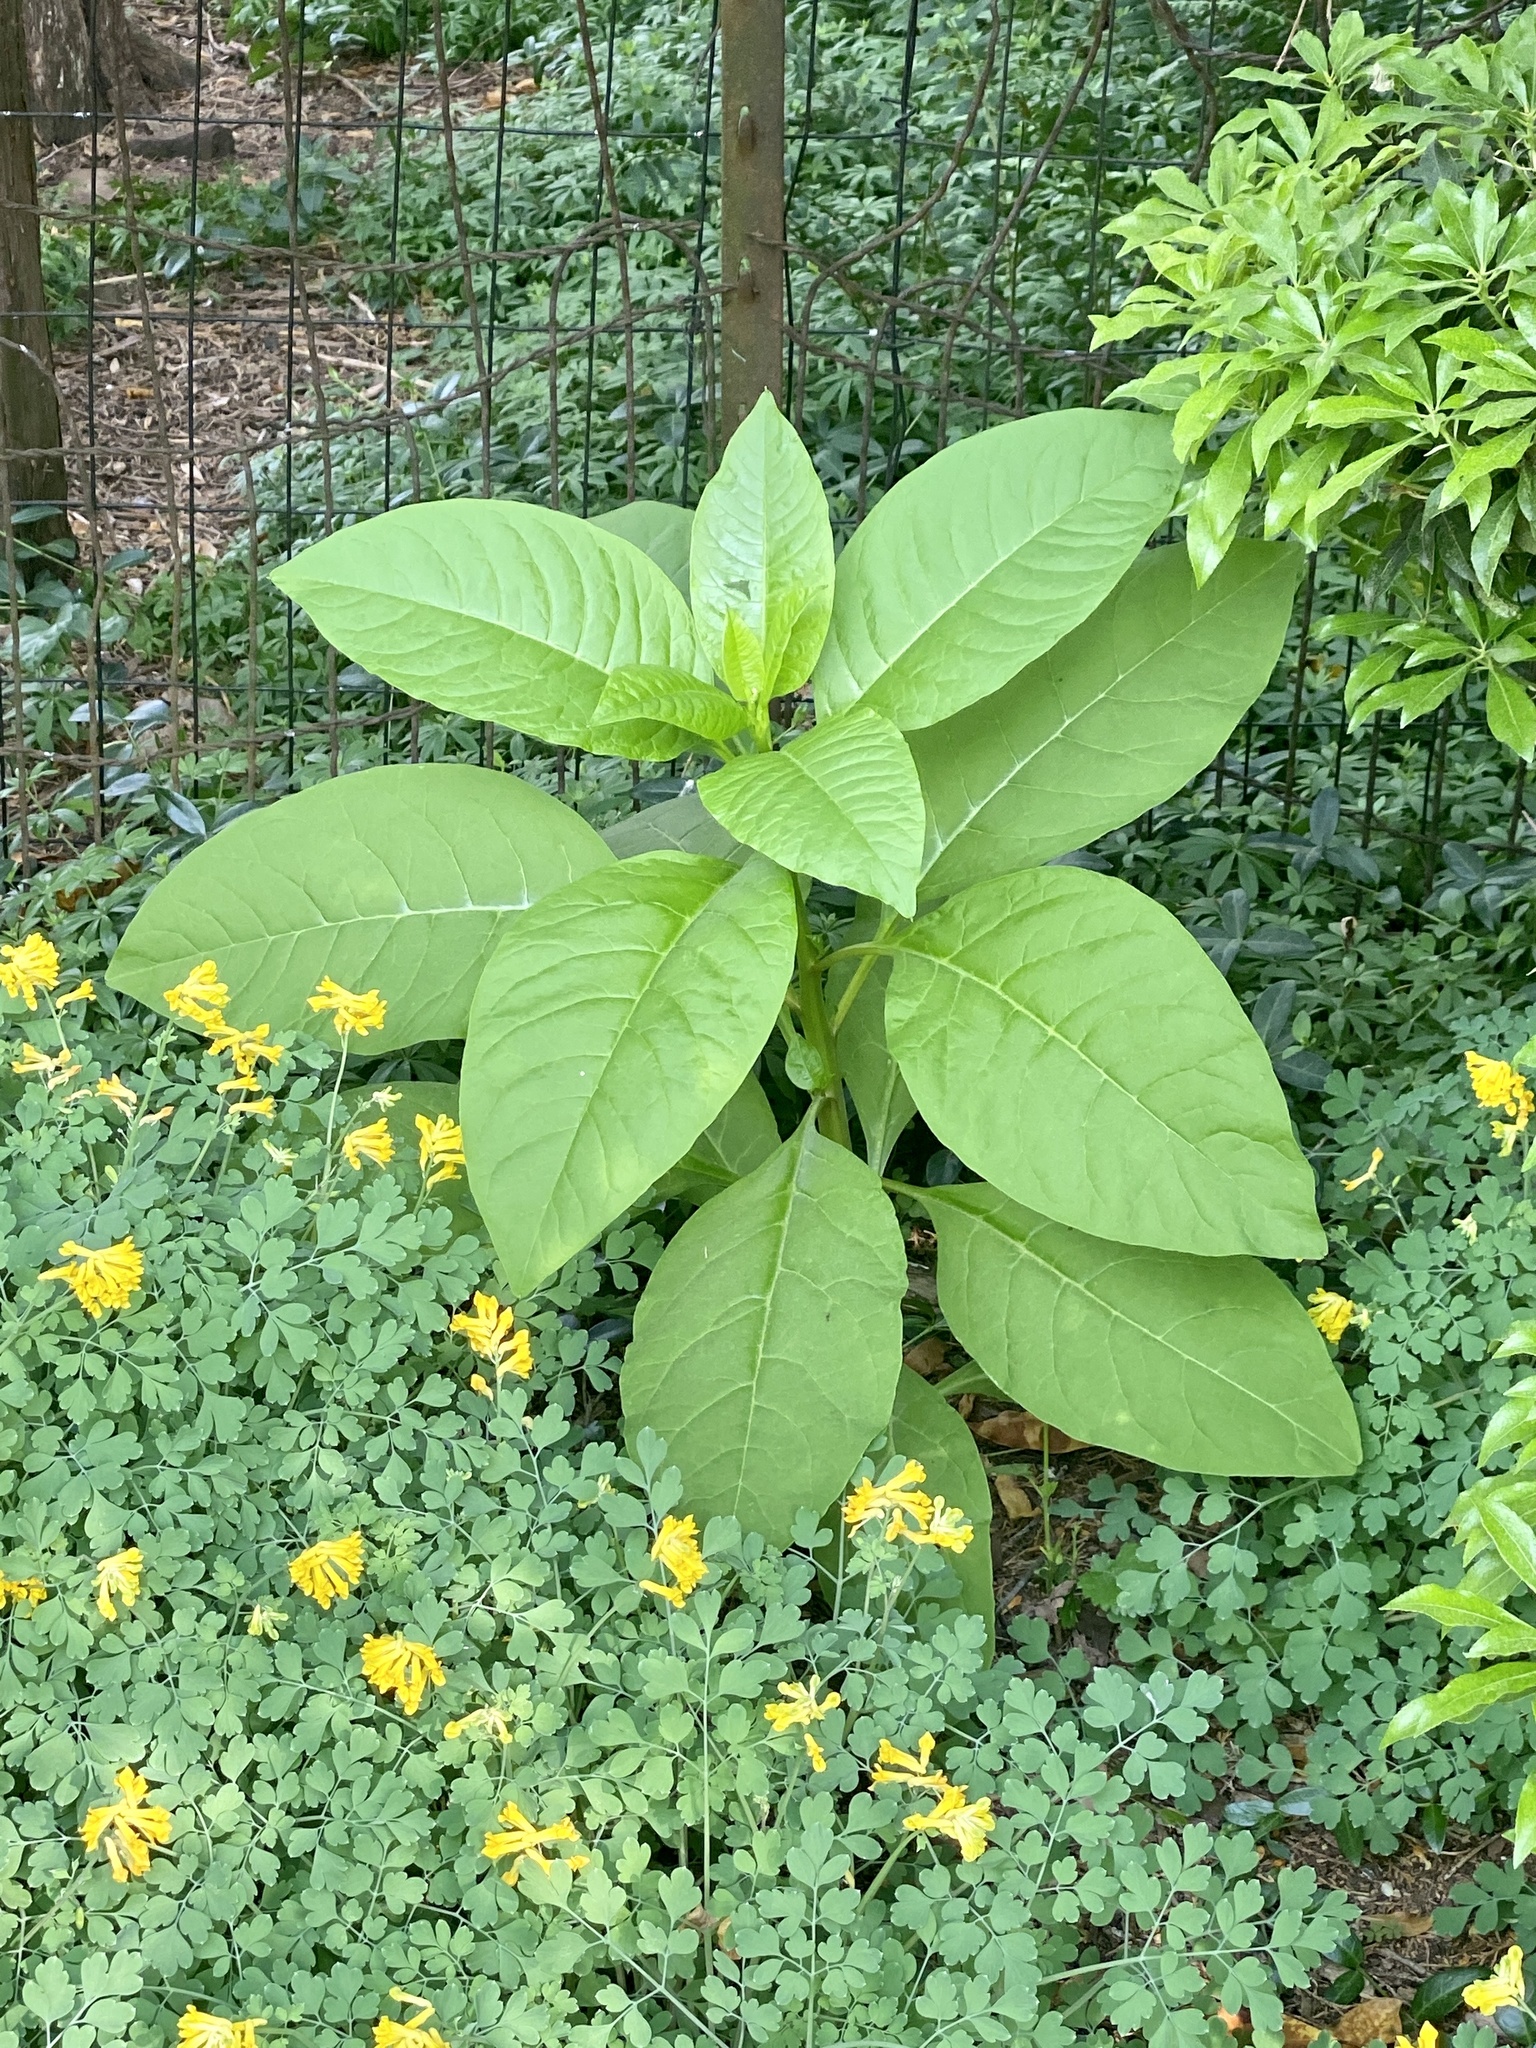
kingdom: Plantae
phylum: Tracheophyta
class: Magnoliopsida
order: Caryophyllales
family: Phytolaccaceae
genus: Phytolacca
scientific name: Phytolacca americana
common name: American pokeweed
